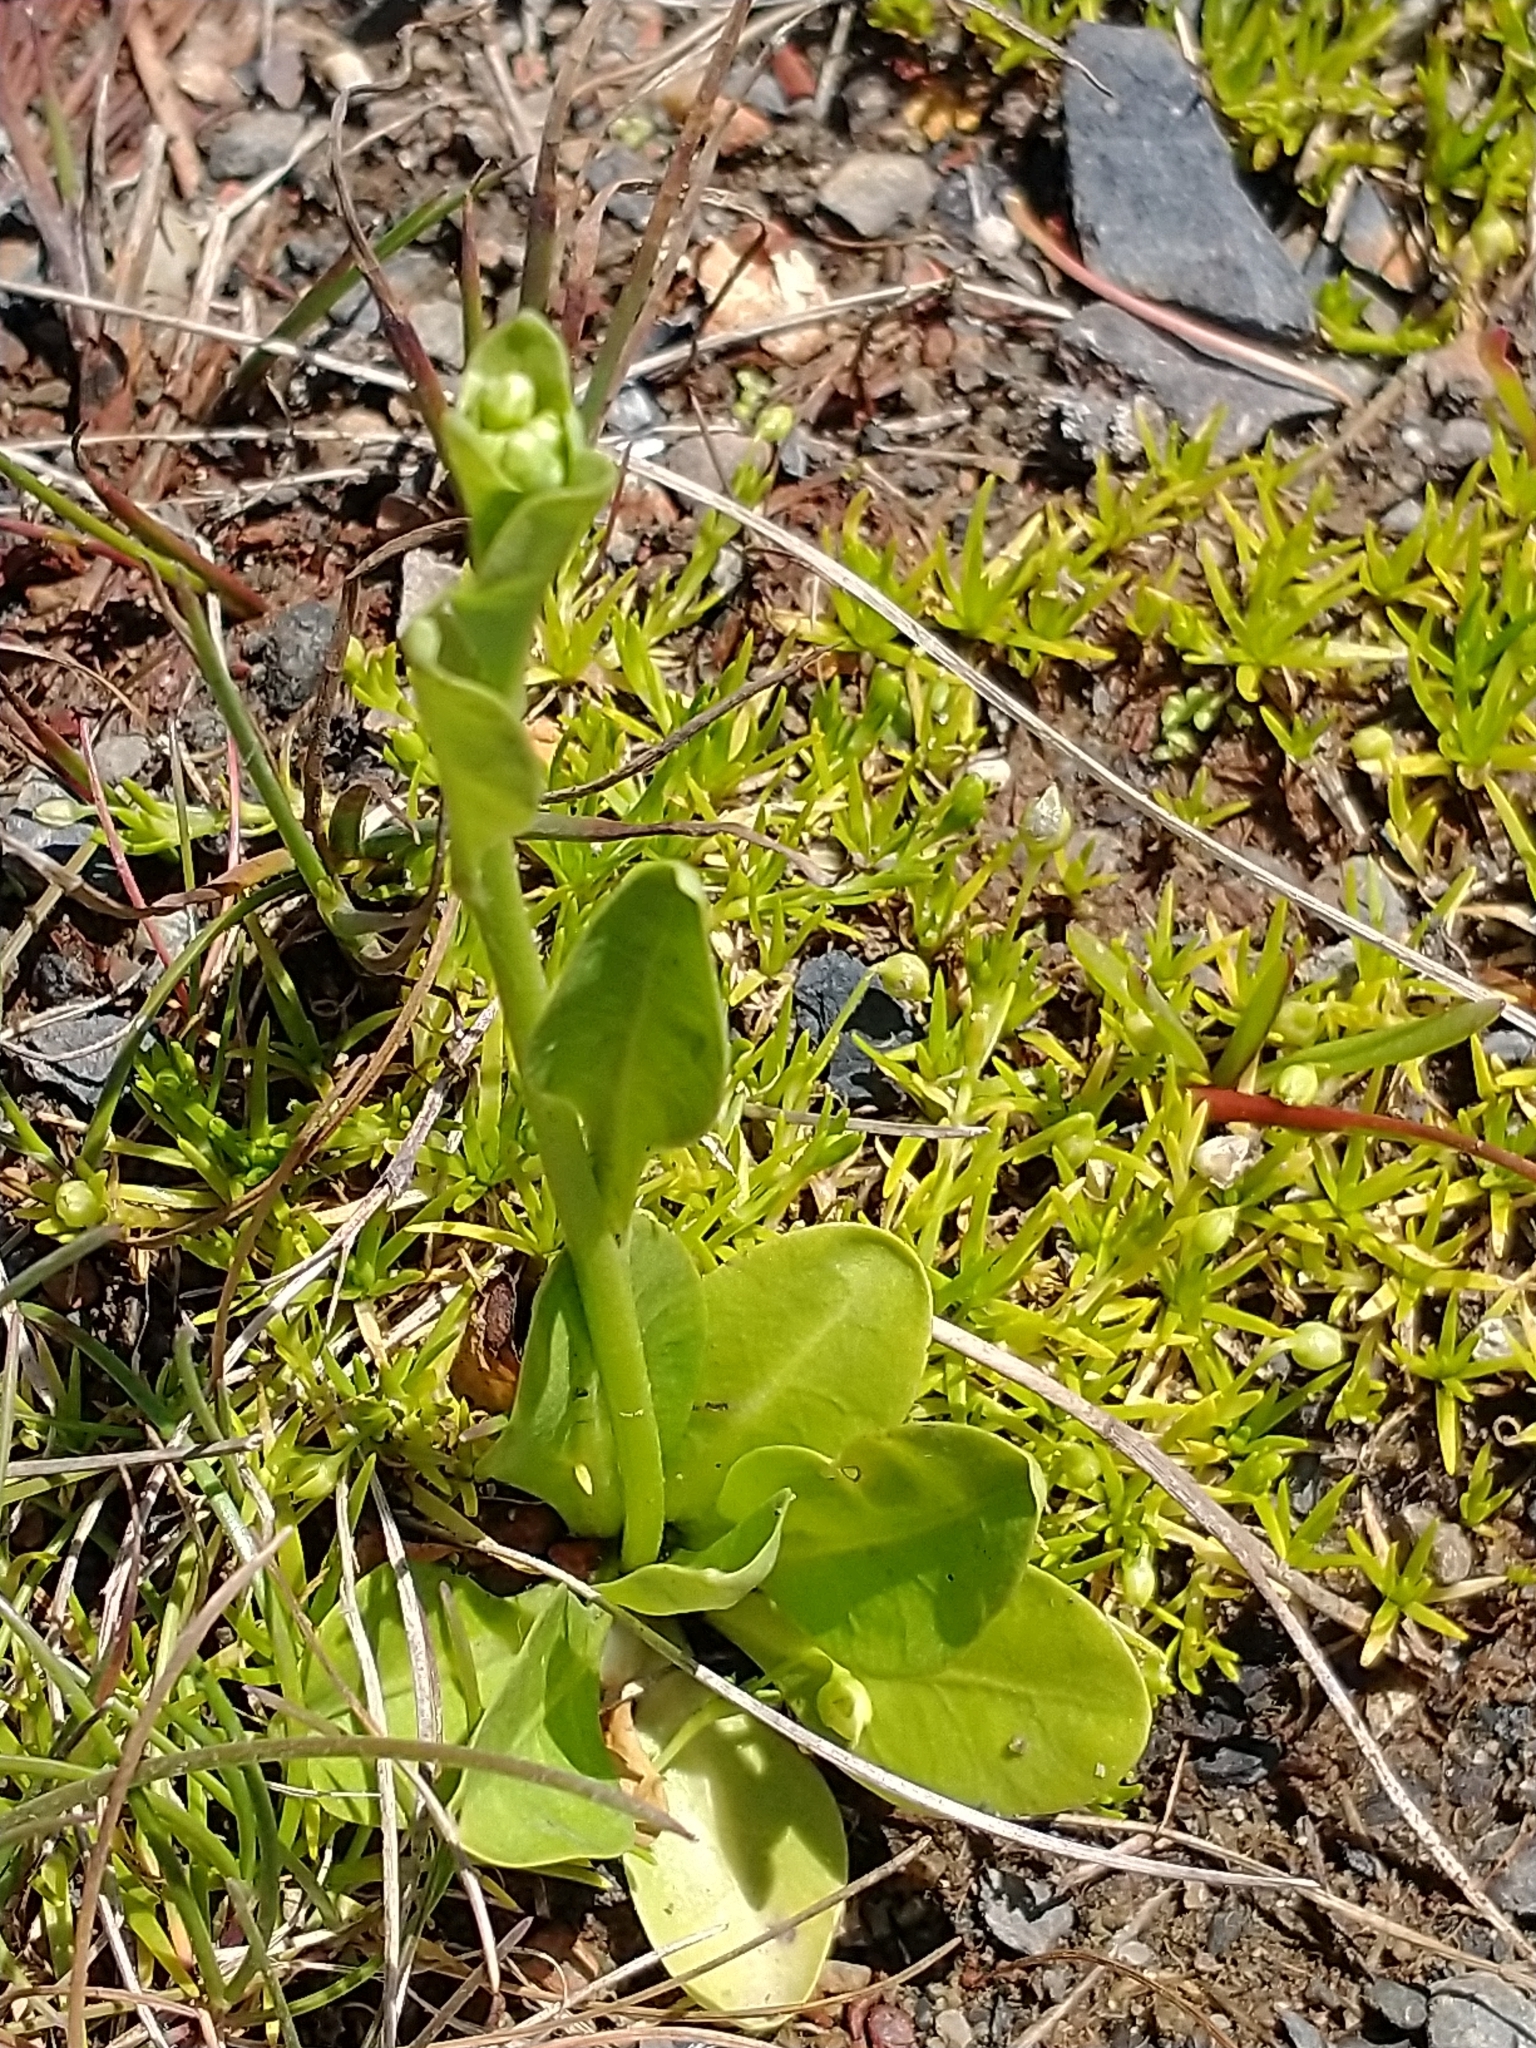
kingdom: Plantae
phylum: Tracheophyta
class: Magnoliopsida
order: Ericales
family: Primulaceae
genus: Samolus
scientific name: Samolus valerandi
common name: Brookweed
